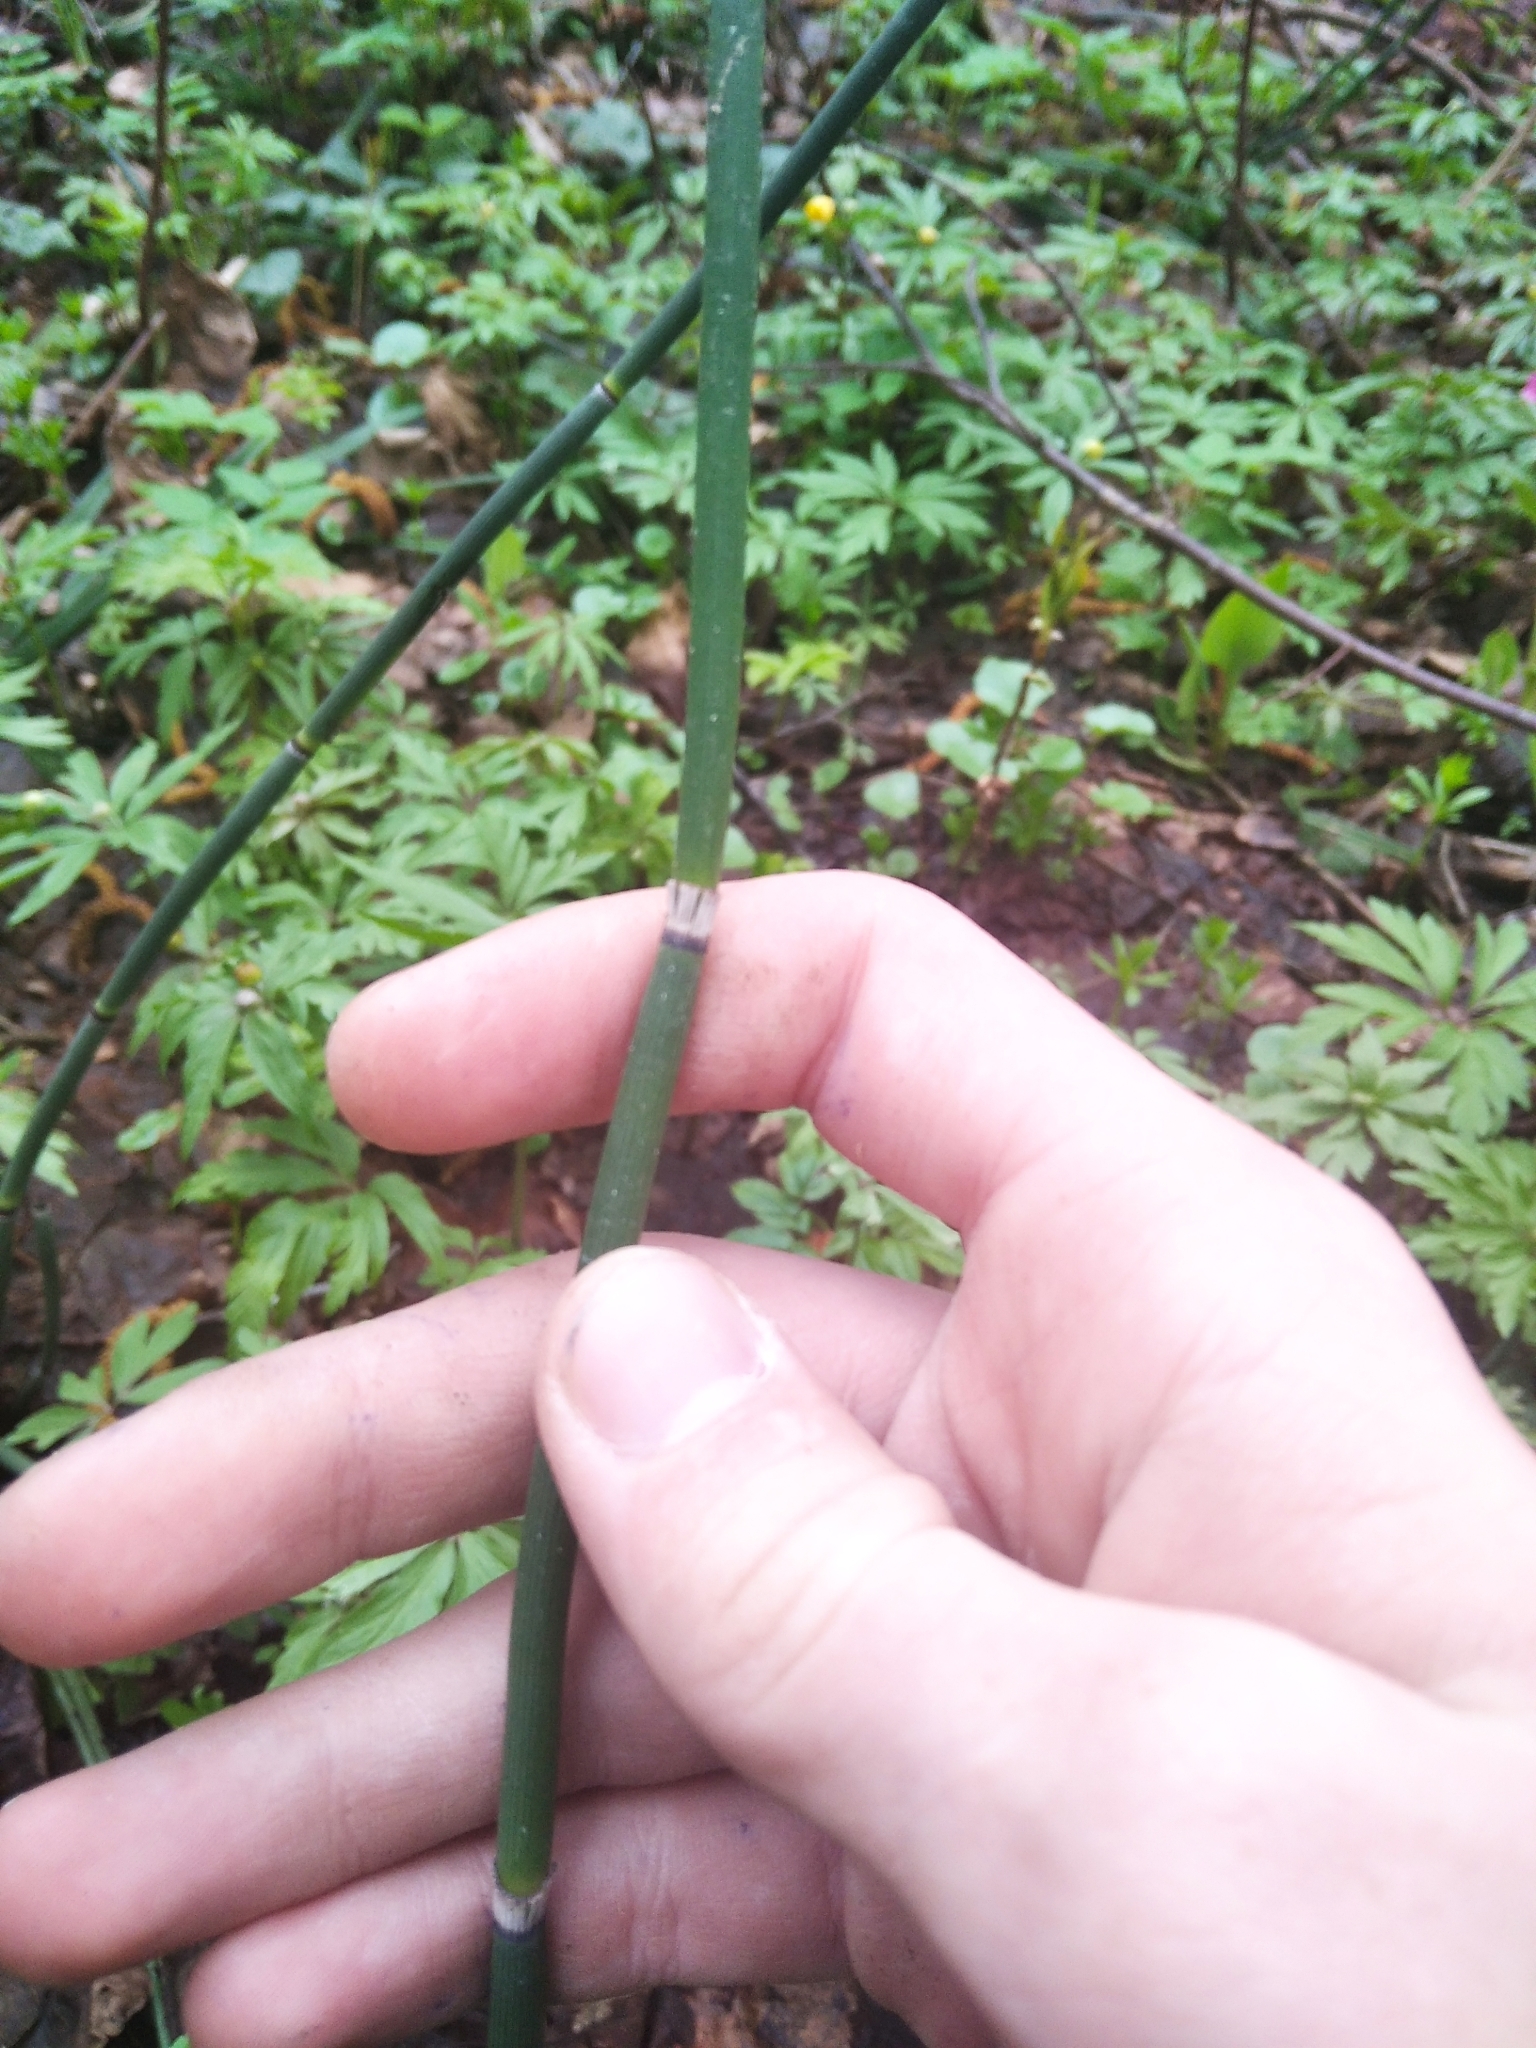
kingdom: Plantae
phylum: Tracheophyta
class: Polypodiopsida
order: Equisetales
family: Equisetaceae
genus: Equisetum
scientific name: Equisetum hyemale
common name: Rough horsetail
